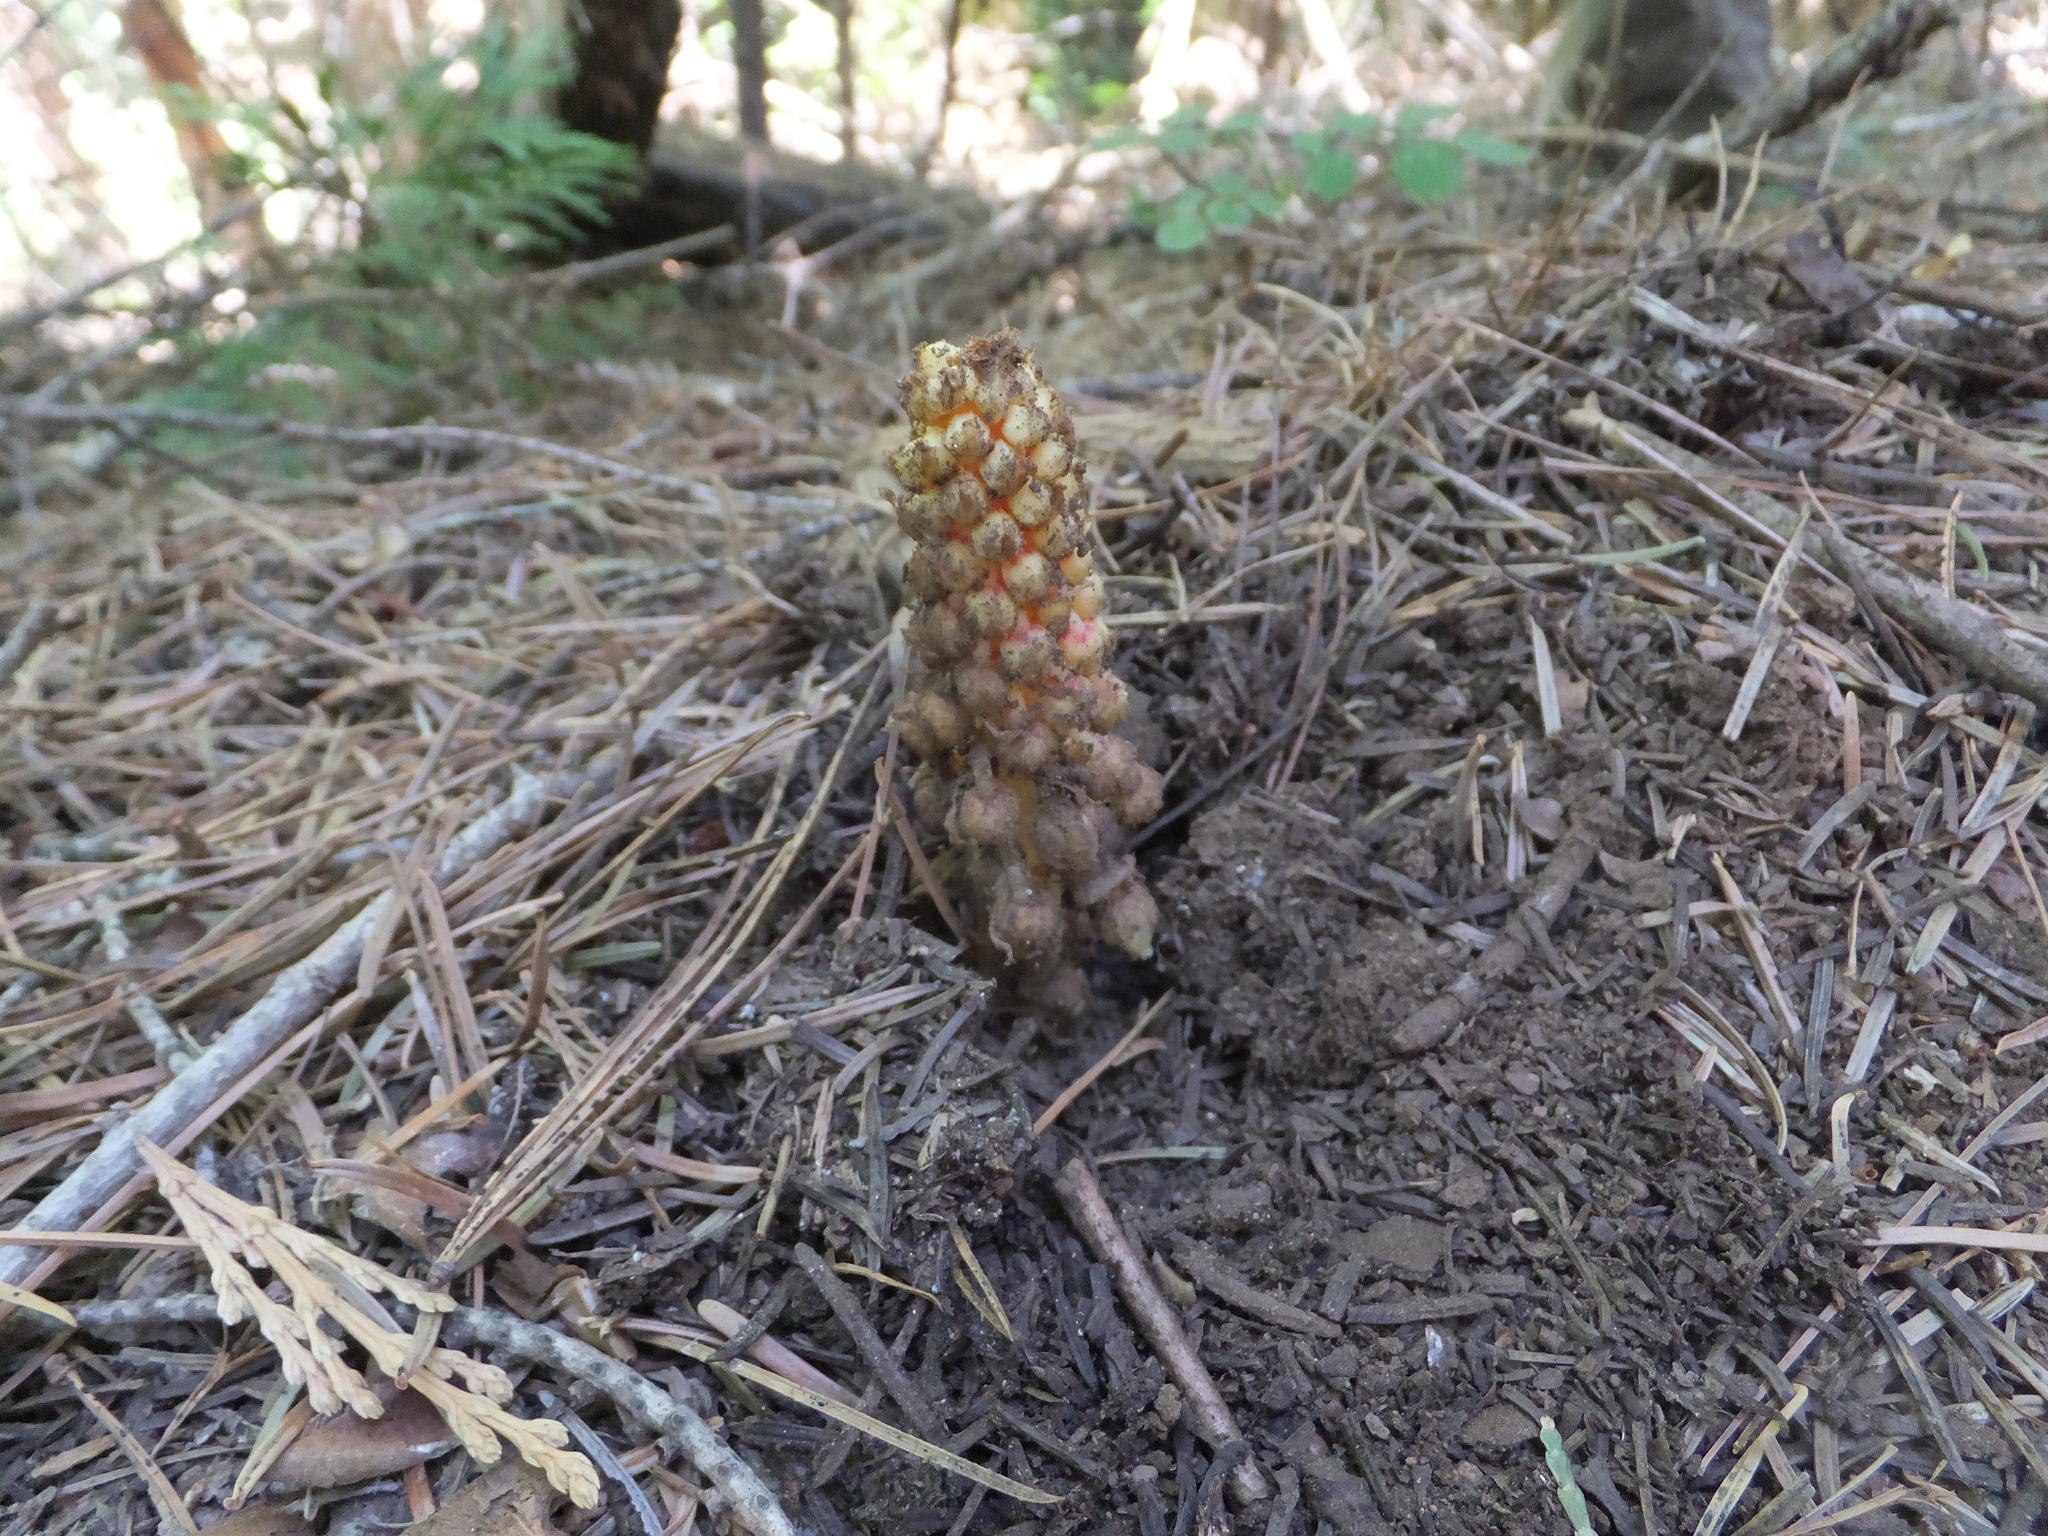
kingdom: Plantae
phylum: Tracheophyta
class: Magnoliopsida
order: Ericales
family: Ericaceae
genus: Pterospora
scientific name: Pterospora andromedea
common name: Giant bird's-nest
